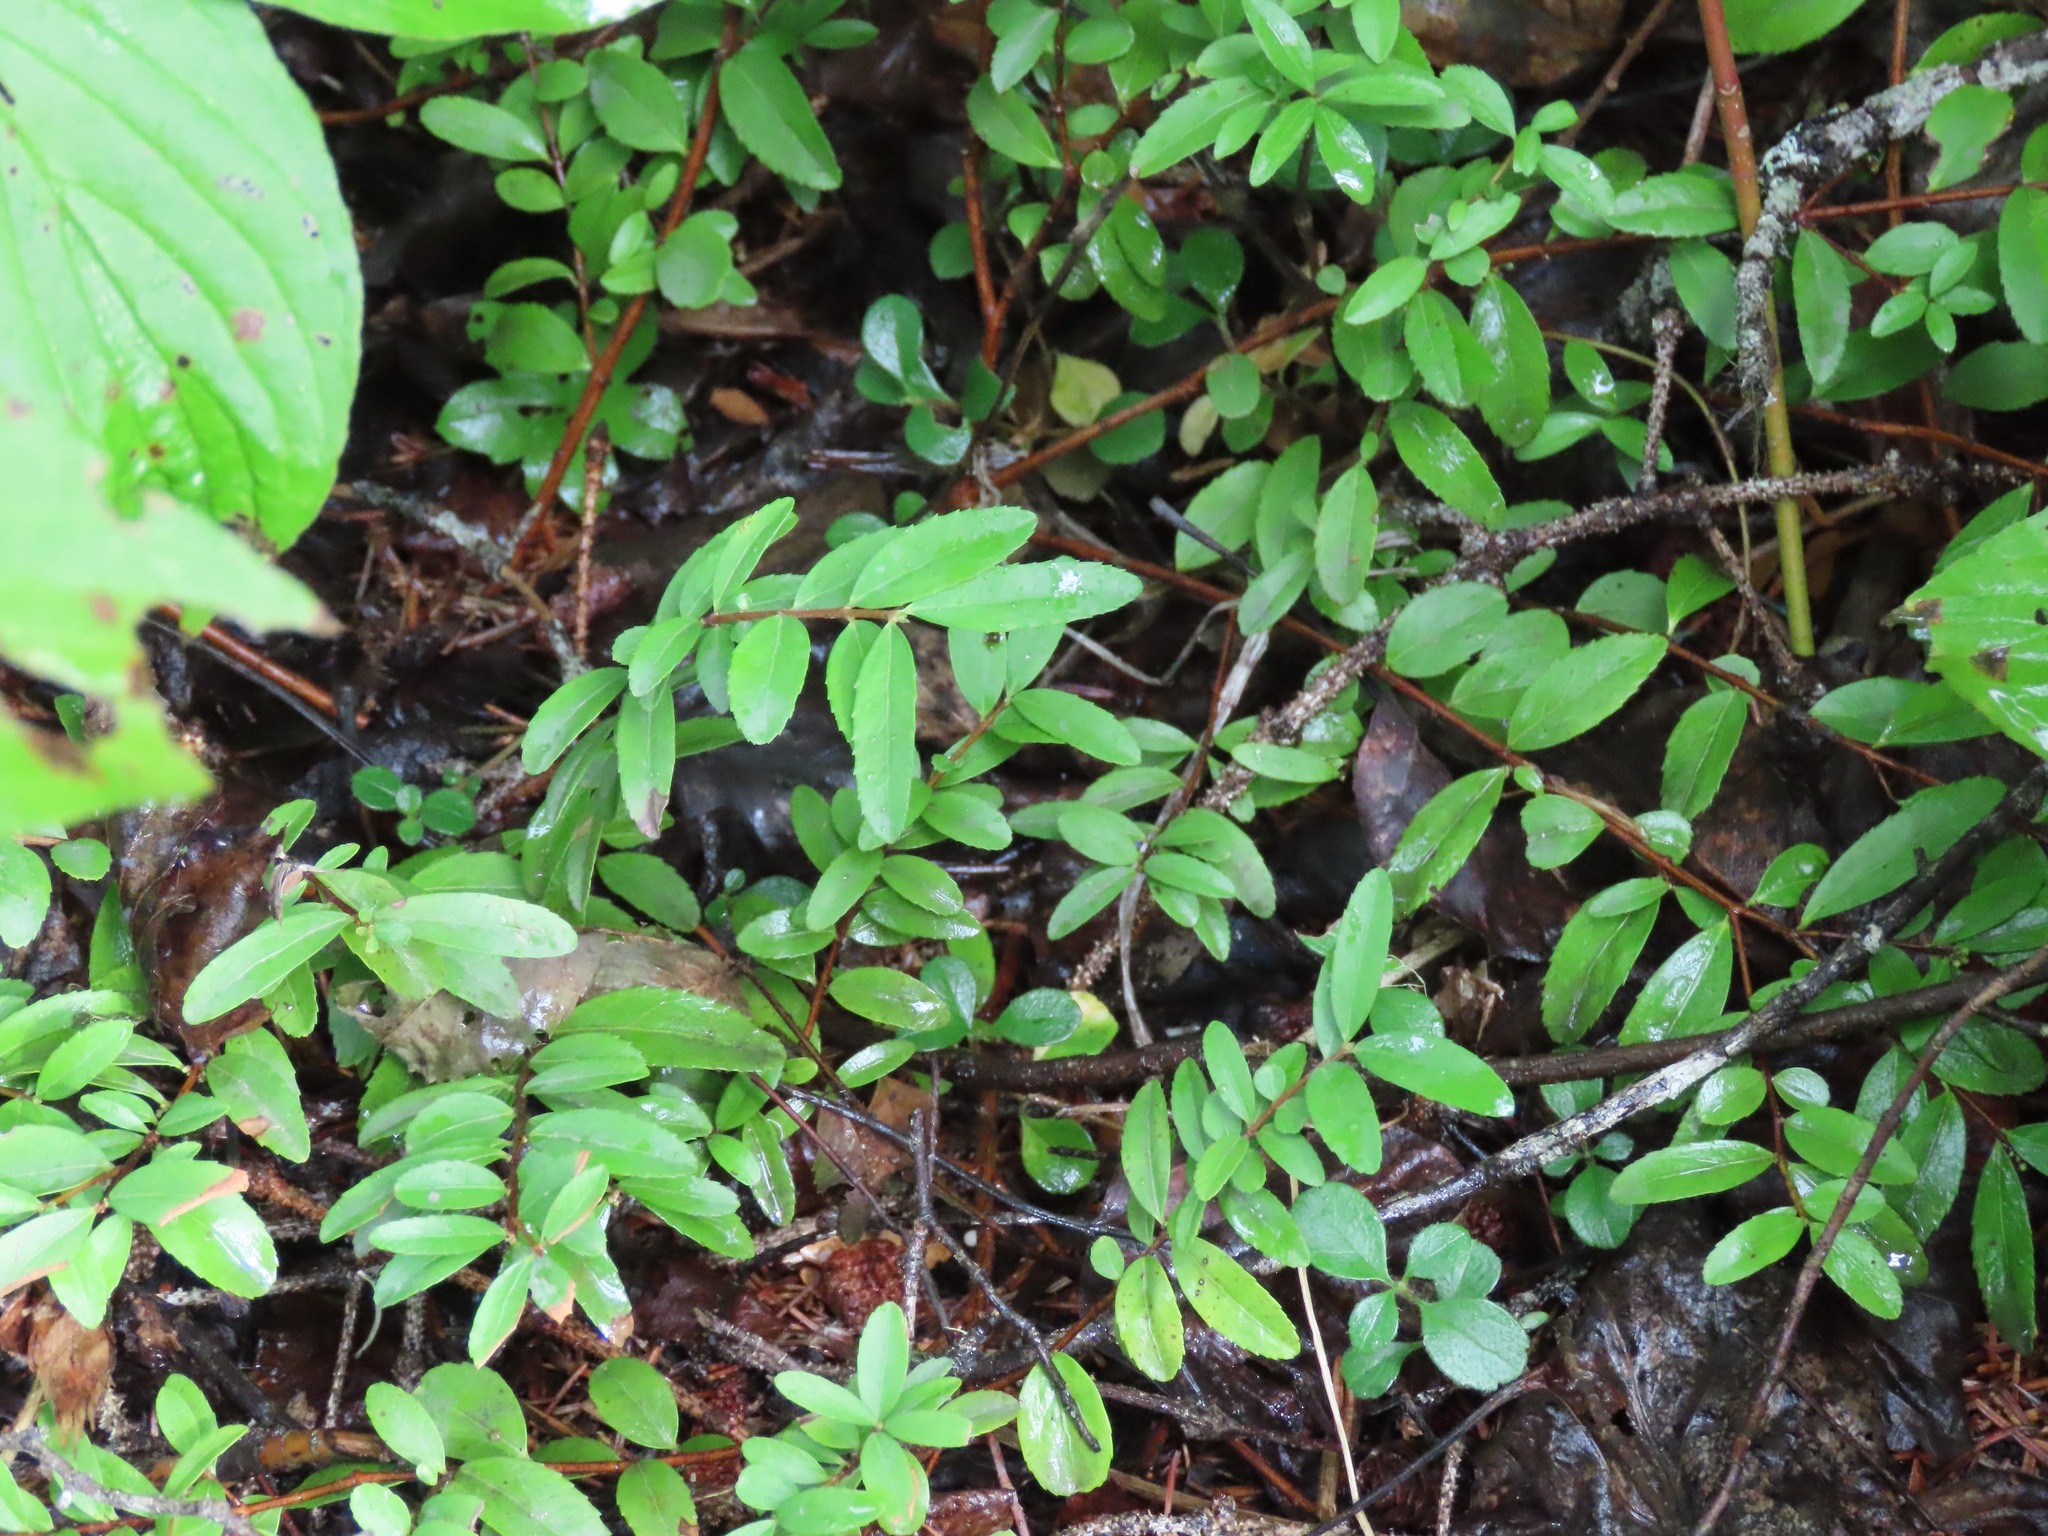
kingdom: Plantae
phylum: Tracheophyta
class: Magnoliopsida
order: Celastrales
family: Celastraceae
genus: Paxistima
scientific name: Paxistima myrsinites
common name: Mountain-lover
